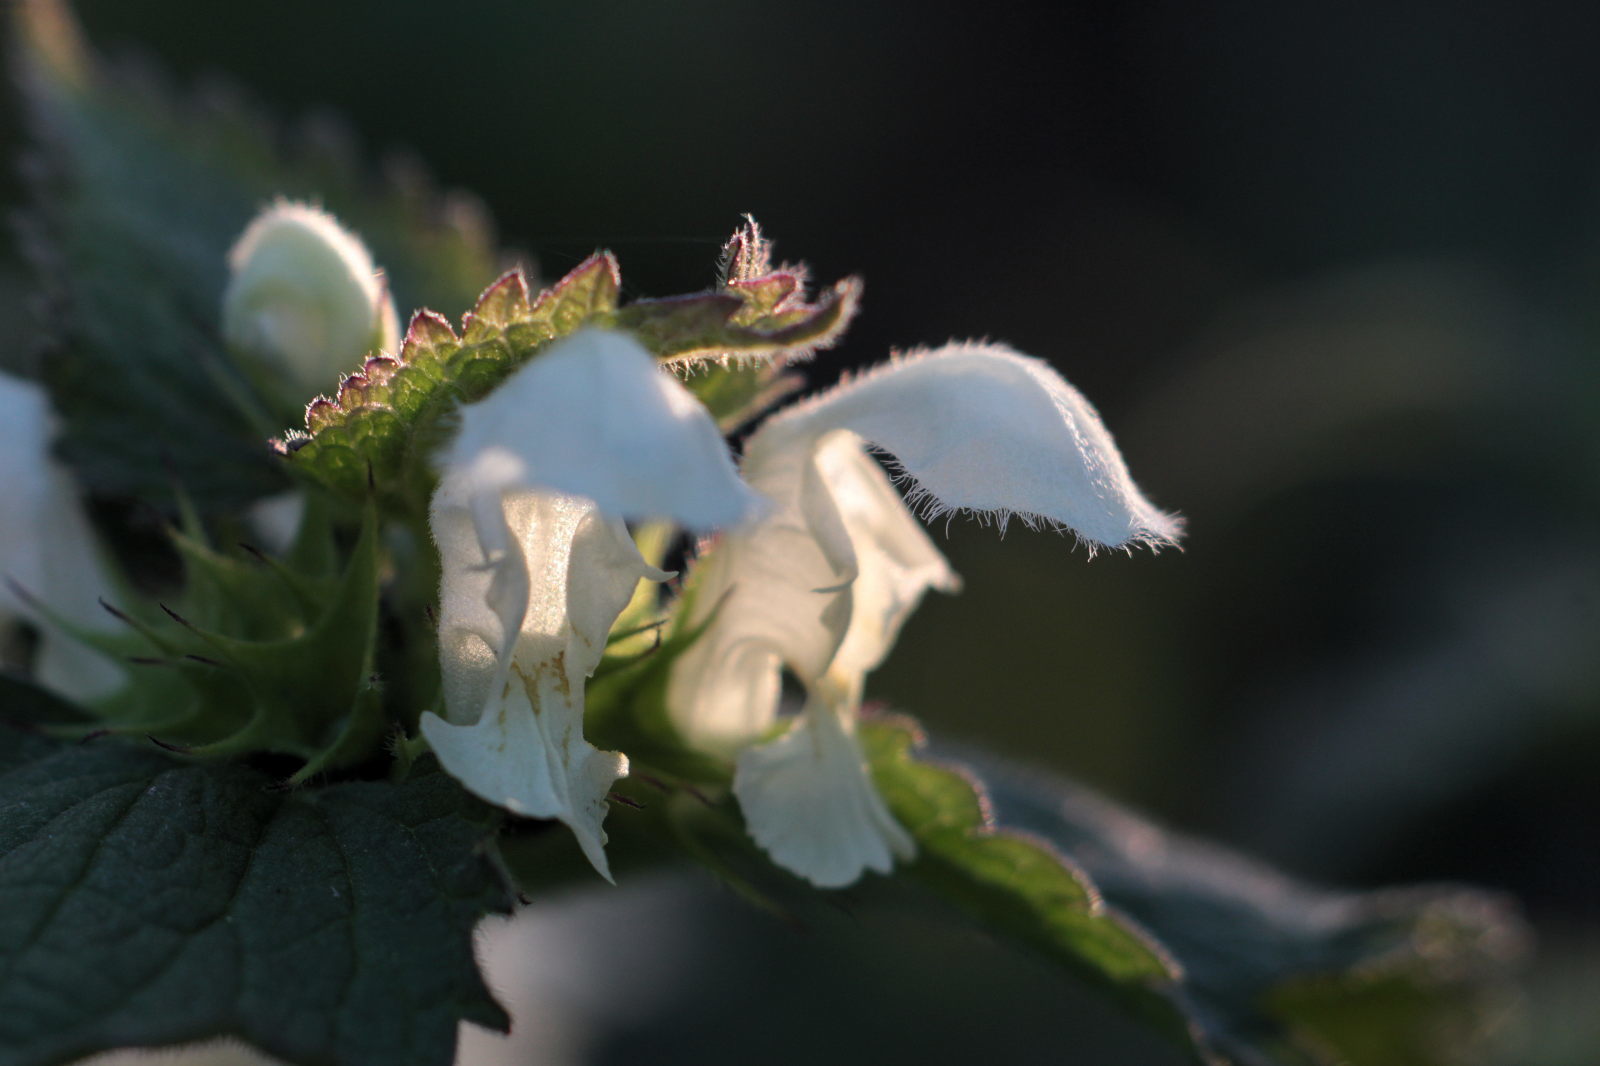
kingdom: Plantae
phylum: Tracheophyta
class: Magnoliopsida
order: Lamiales
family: Lamiaceae
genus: Lamium
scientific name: Lamium album
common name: White dead-nettle
